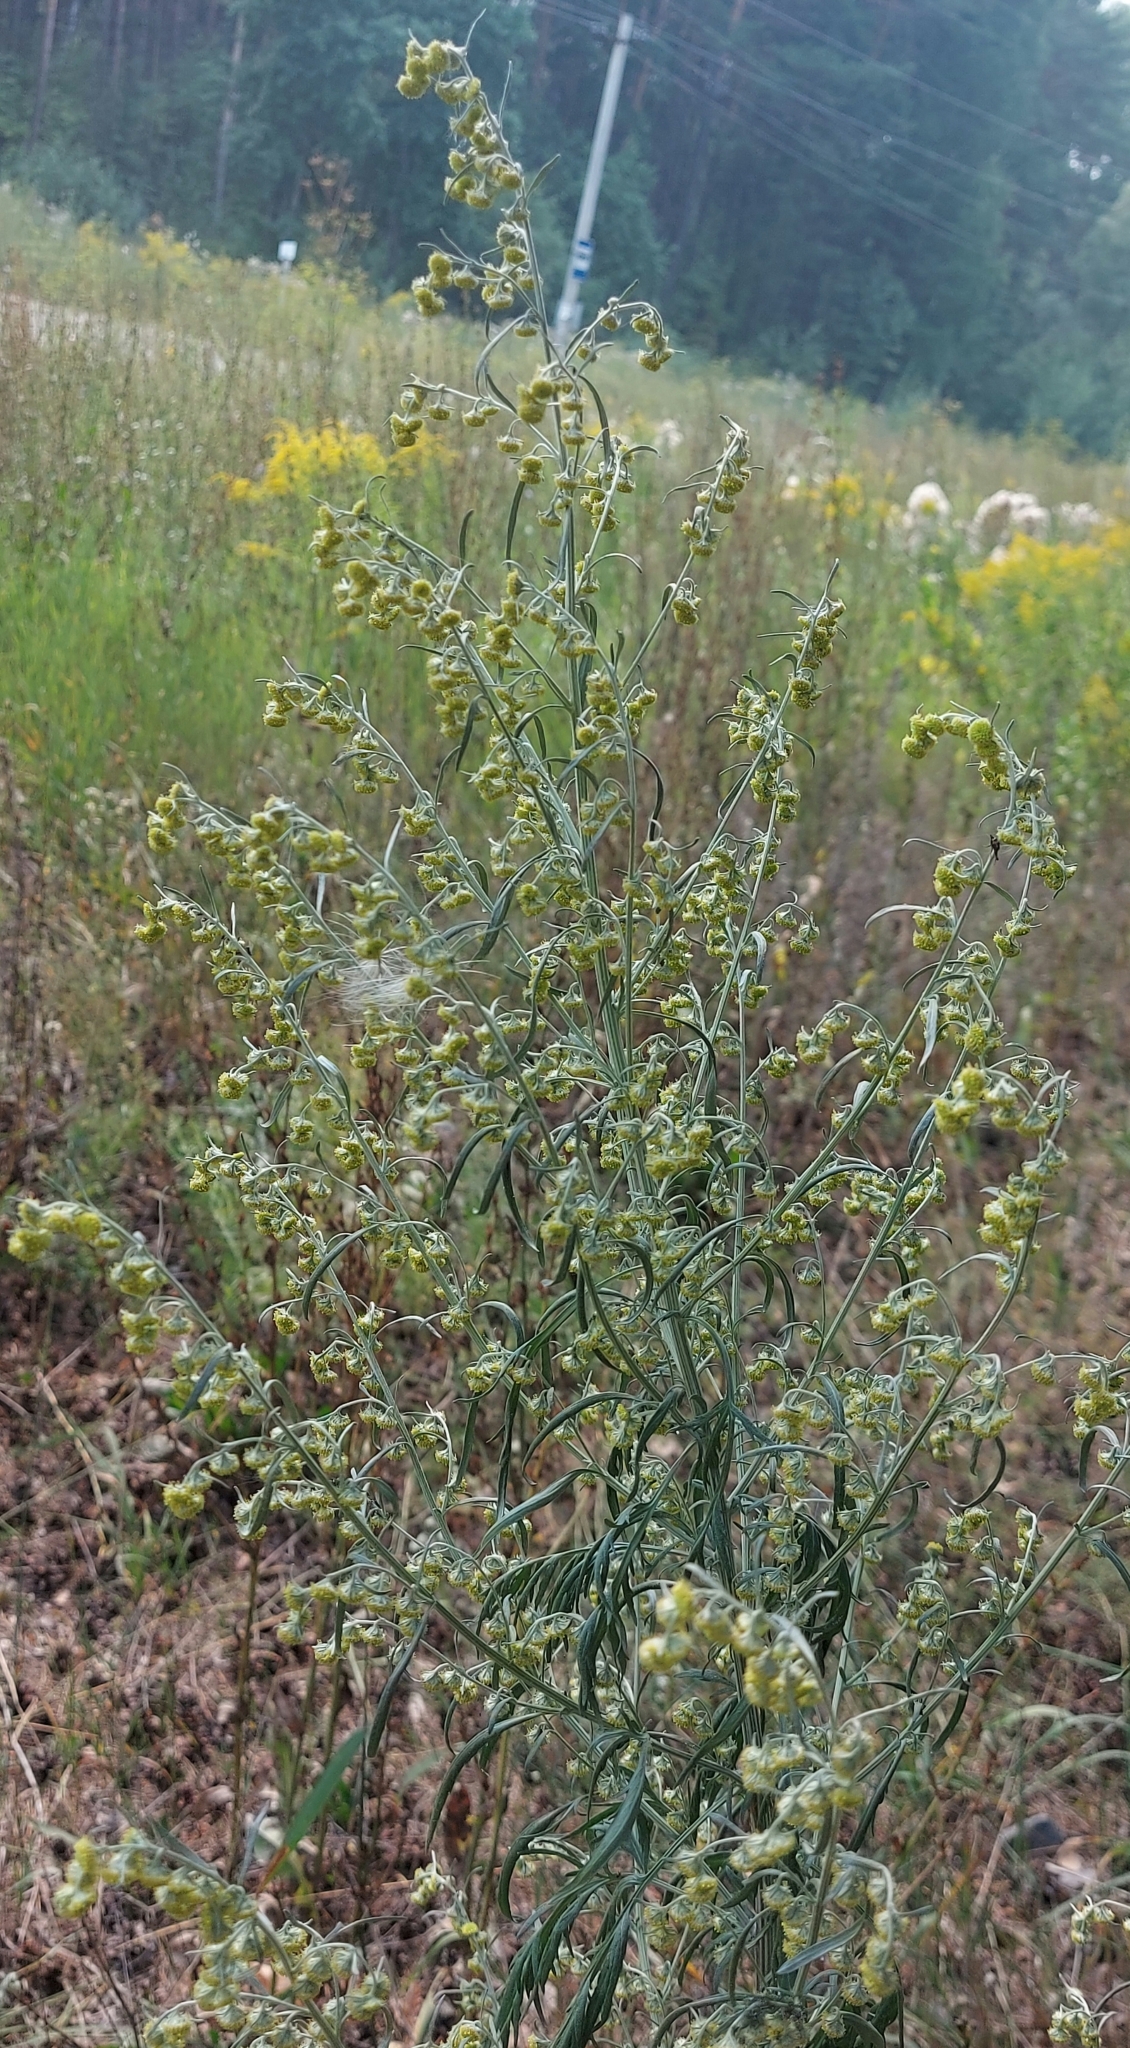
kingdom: Plantae
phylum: Tracheophyta
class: Magnoliopsida
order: Asterales
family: Asteraceae
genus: Artemisia
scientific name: Artemisia sieversiana
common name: Sieversian wormwood
